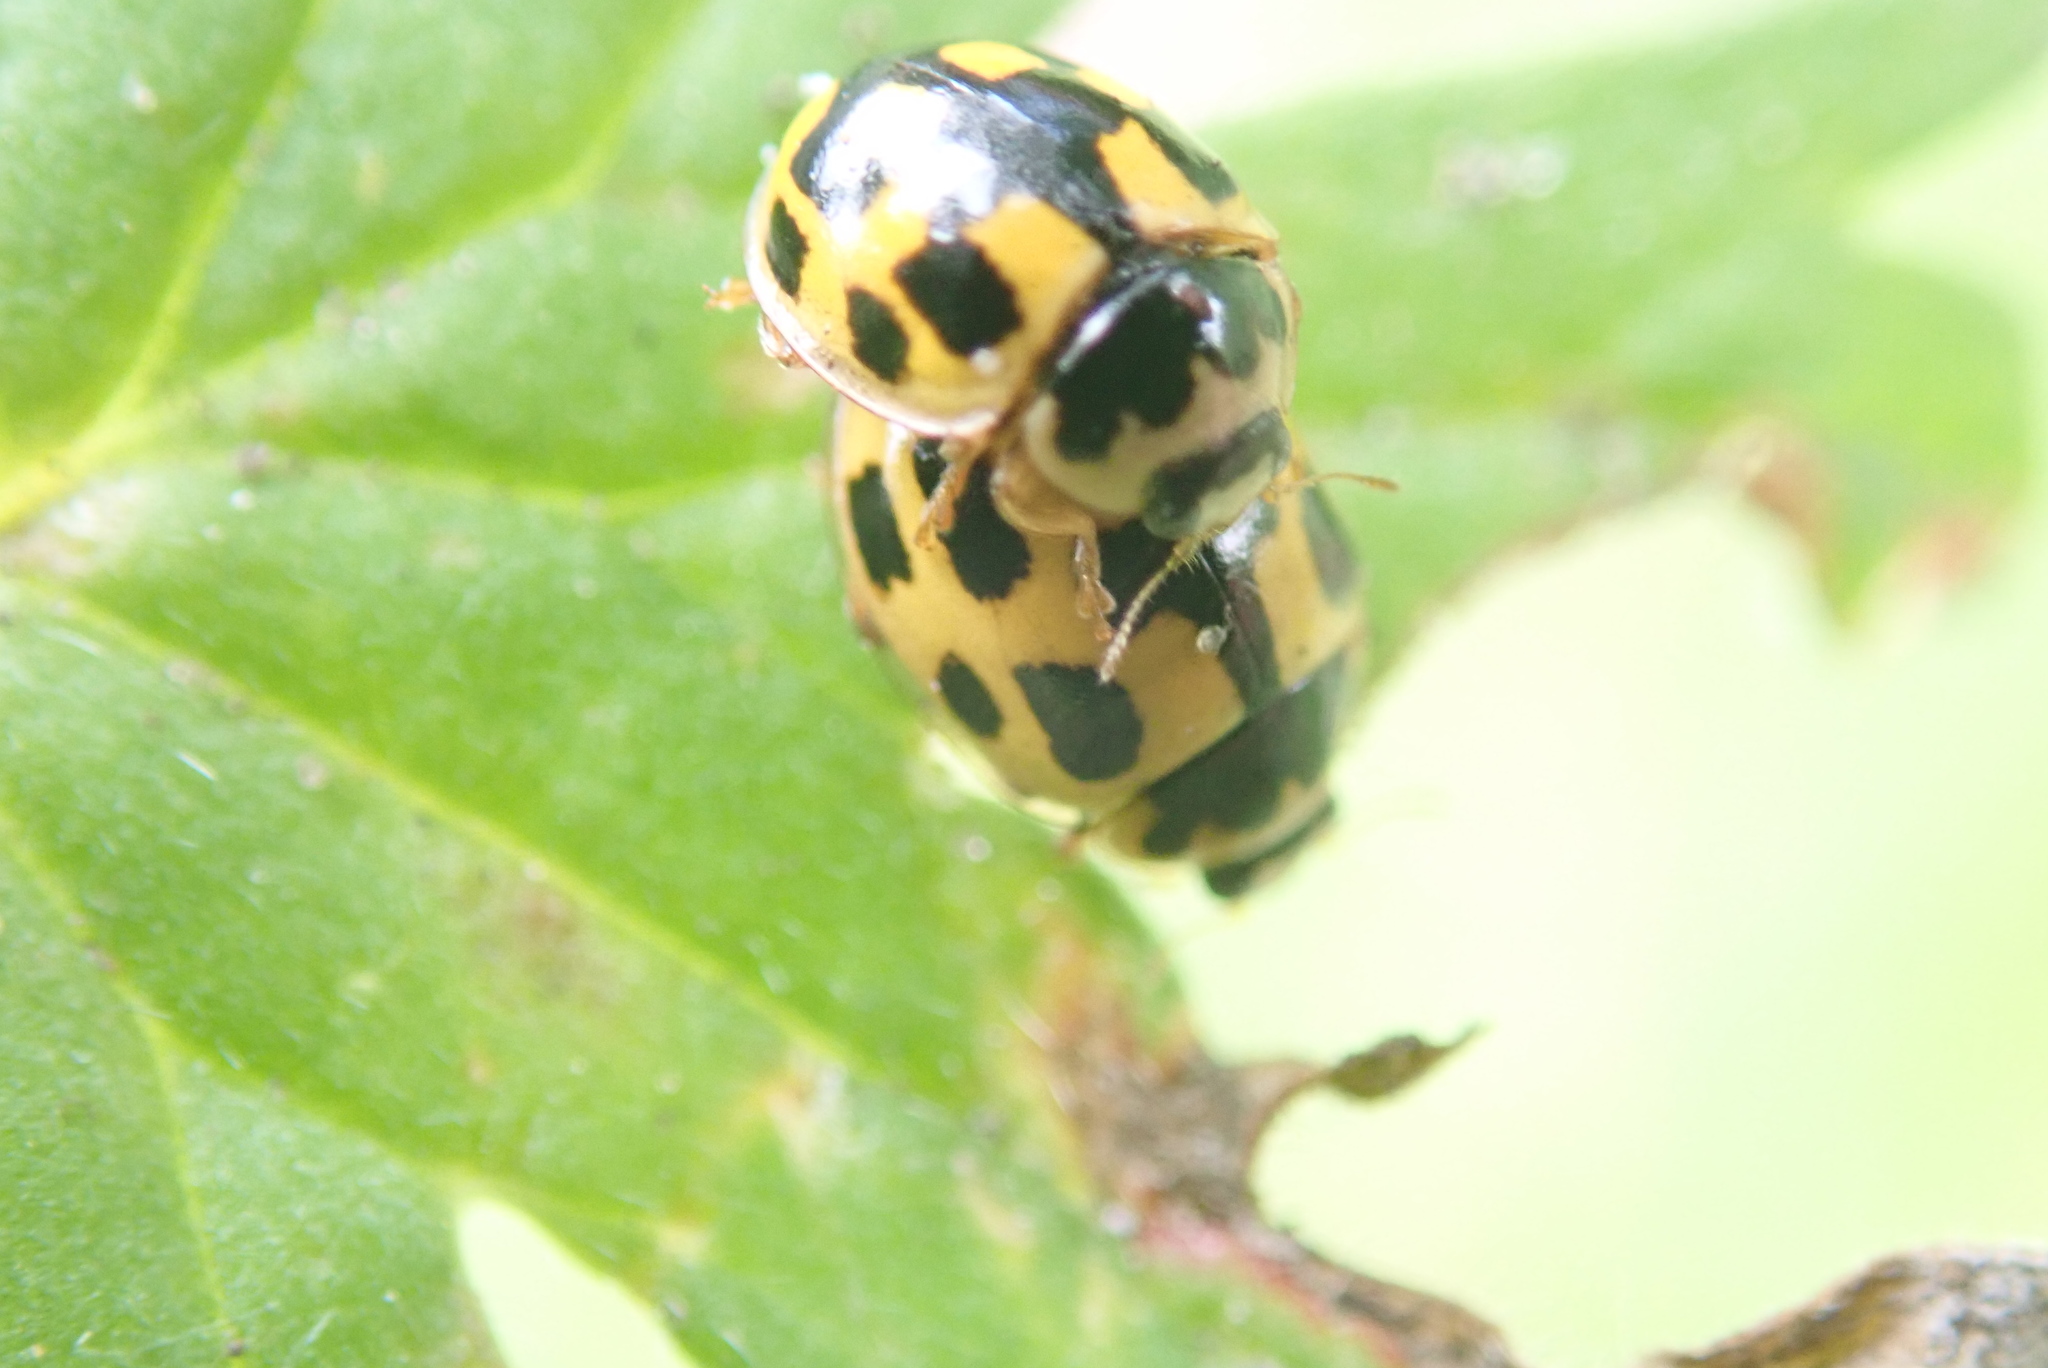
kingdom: Animalia
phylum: Arthropoda
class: Insecta
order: Coleoptera
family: Coccinellidae
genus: Propylaea
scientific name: Propylaea quatuordecimpunctata
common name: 14-spotted ladybird beetle
